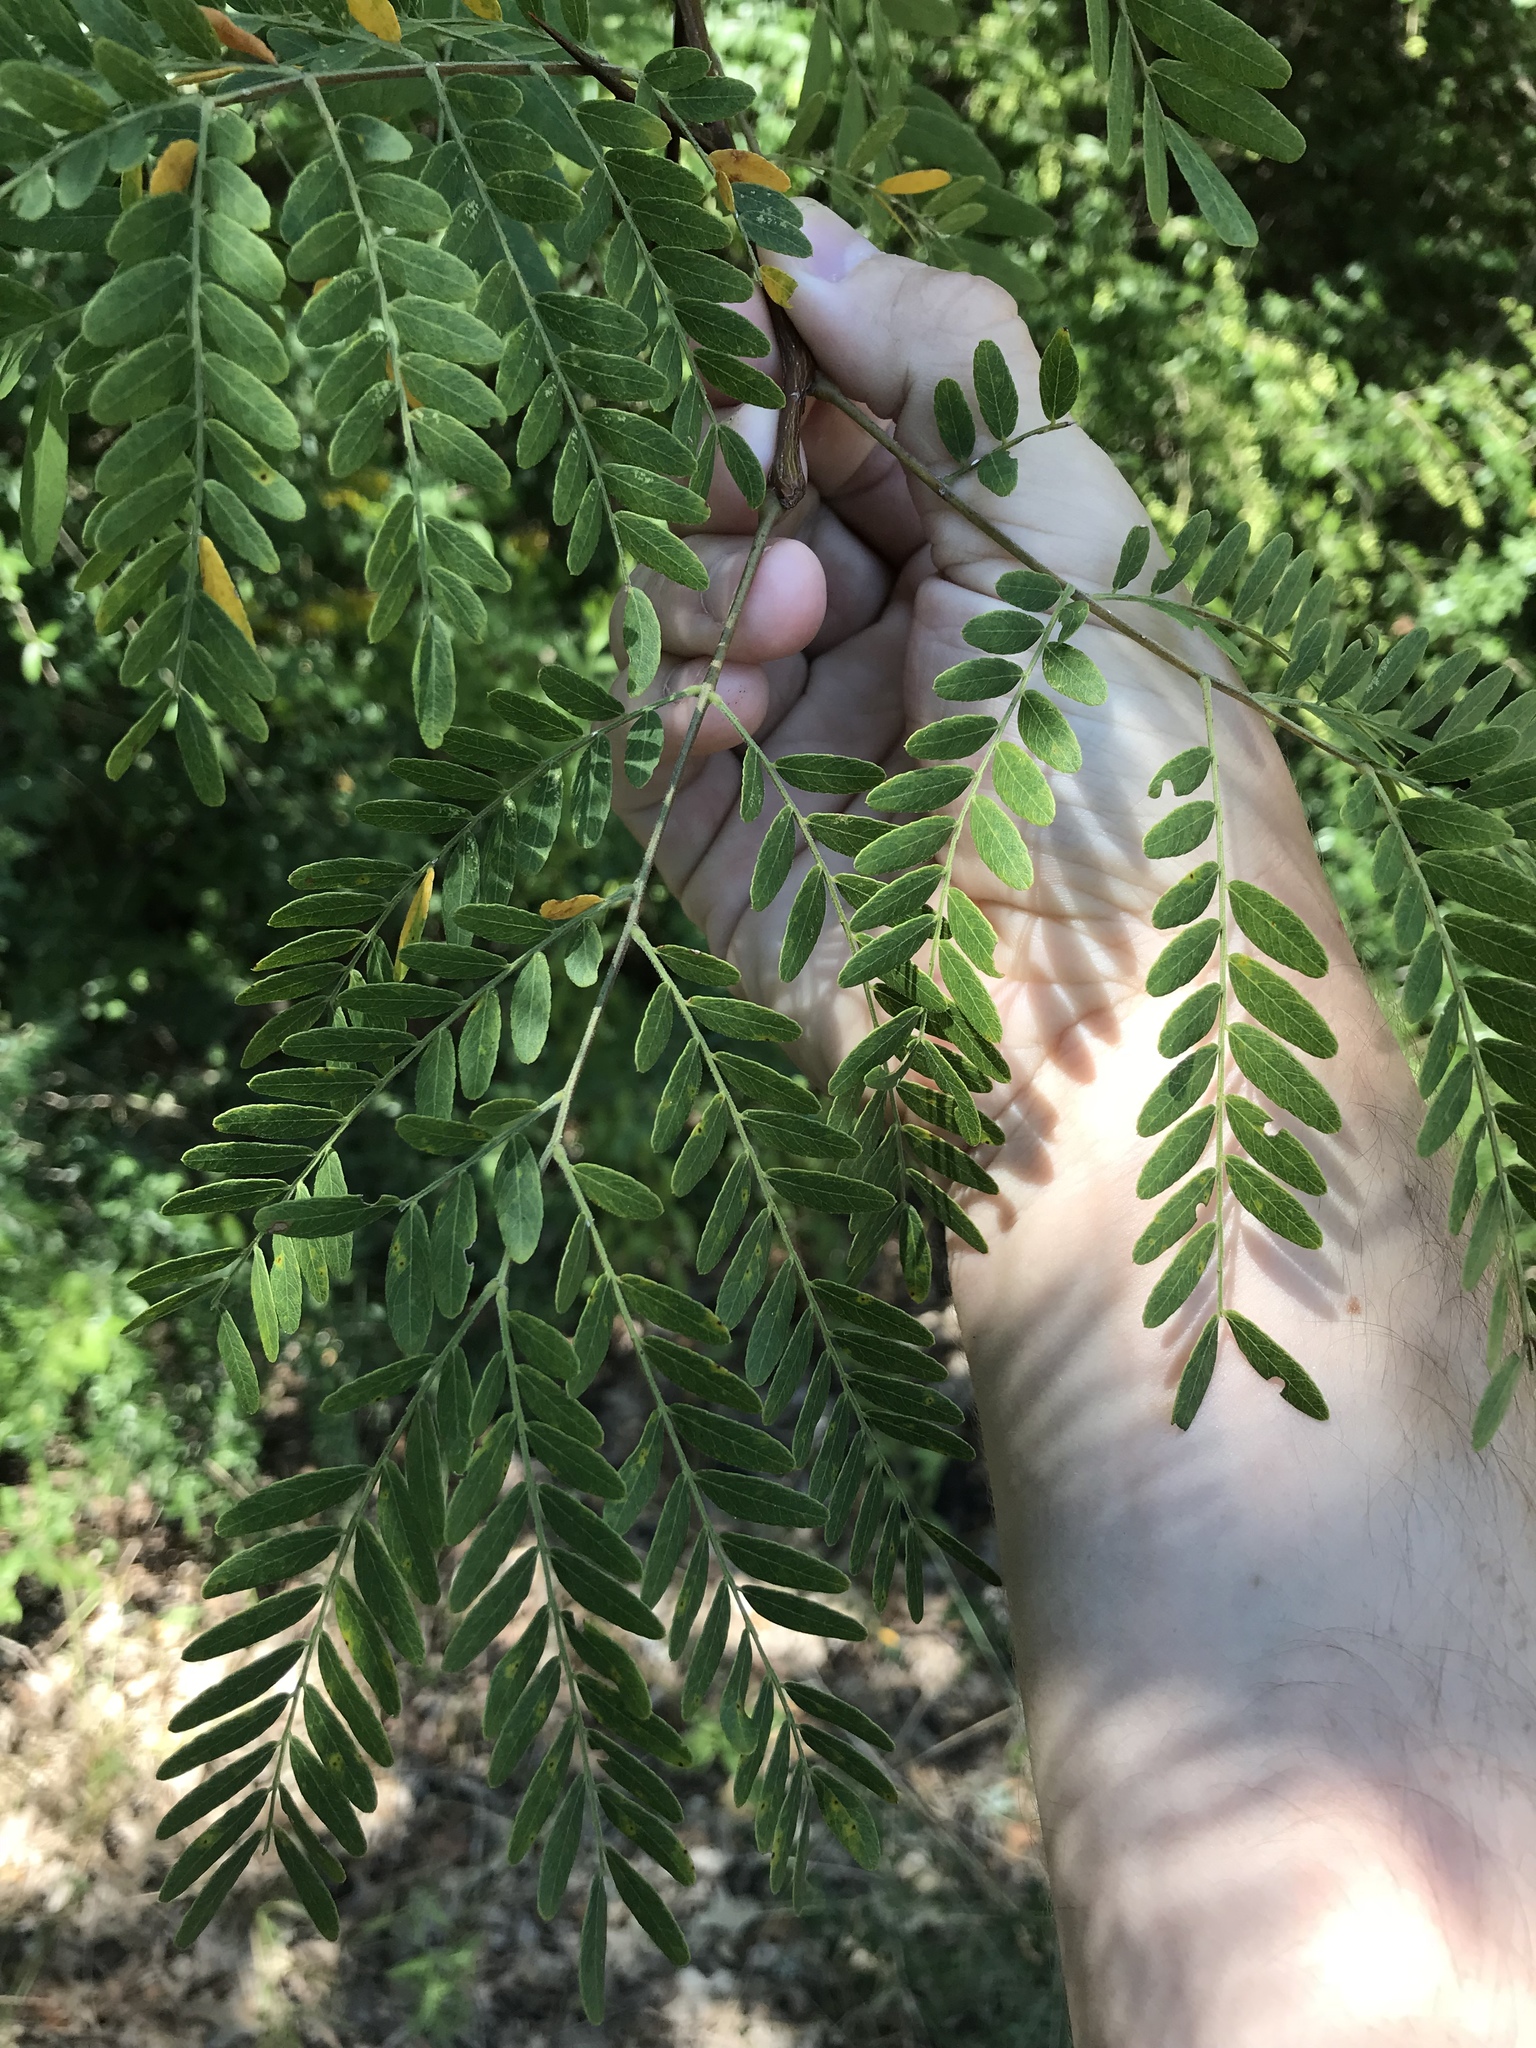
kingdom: Plantae
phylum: Tracheophyta
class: Magnoliopsida
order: Fabales
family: Fabaceae
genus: Gleditsia
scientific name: Gleditsia triacanthos
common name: Common honeylocust
